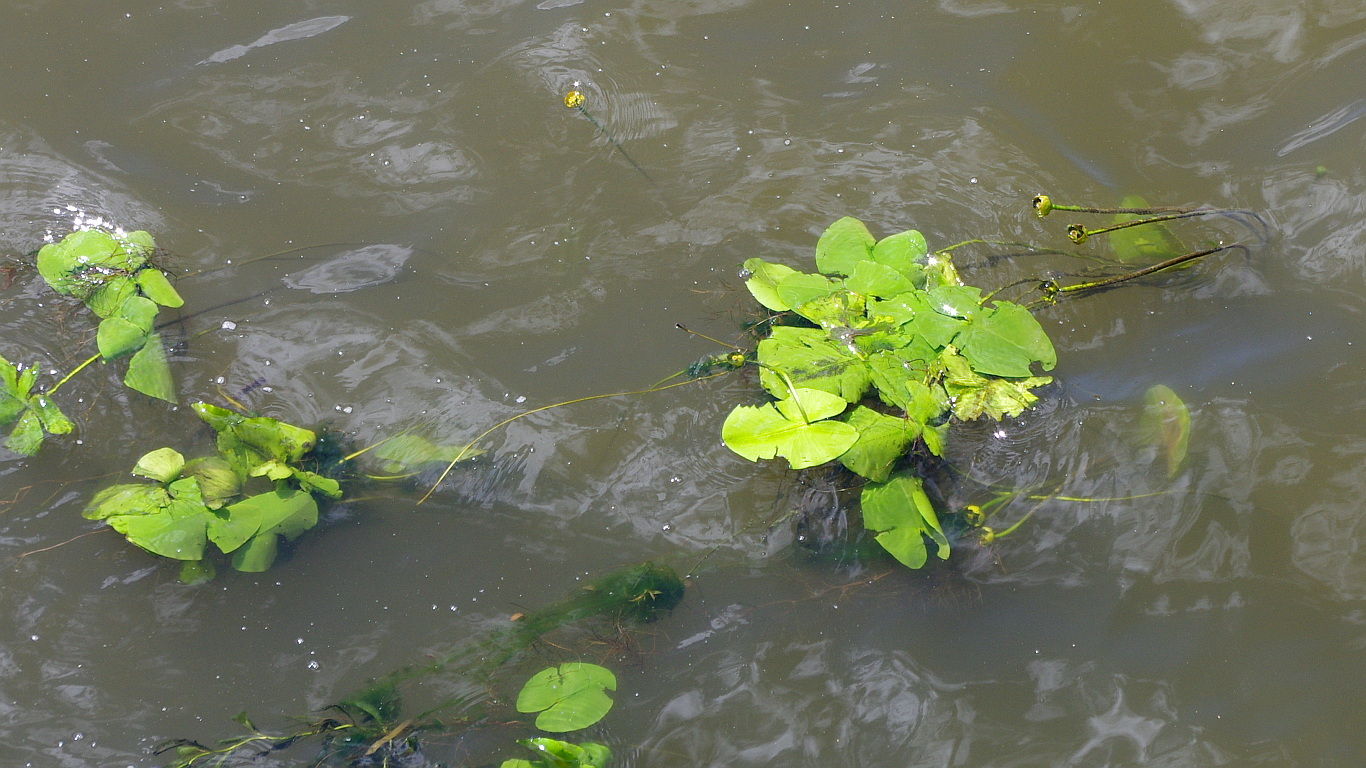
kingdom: Plantae
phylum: Tracheophyta
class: Magnoliopsida
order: Nymphaeales
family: Nymphaeaceae
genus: Nuphar
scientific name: Nuphar lutea
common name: Yellow water-lily
